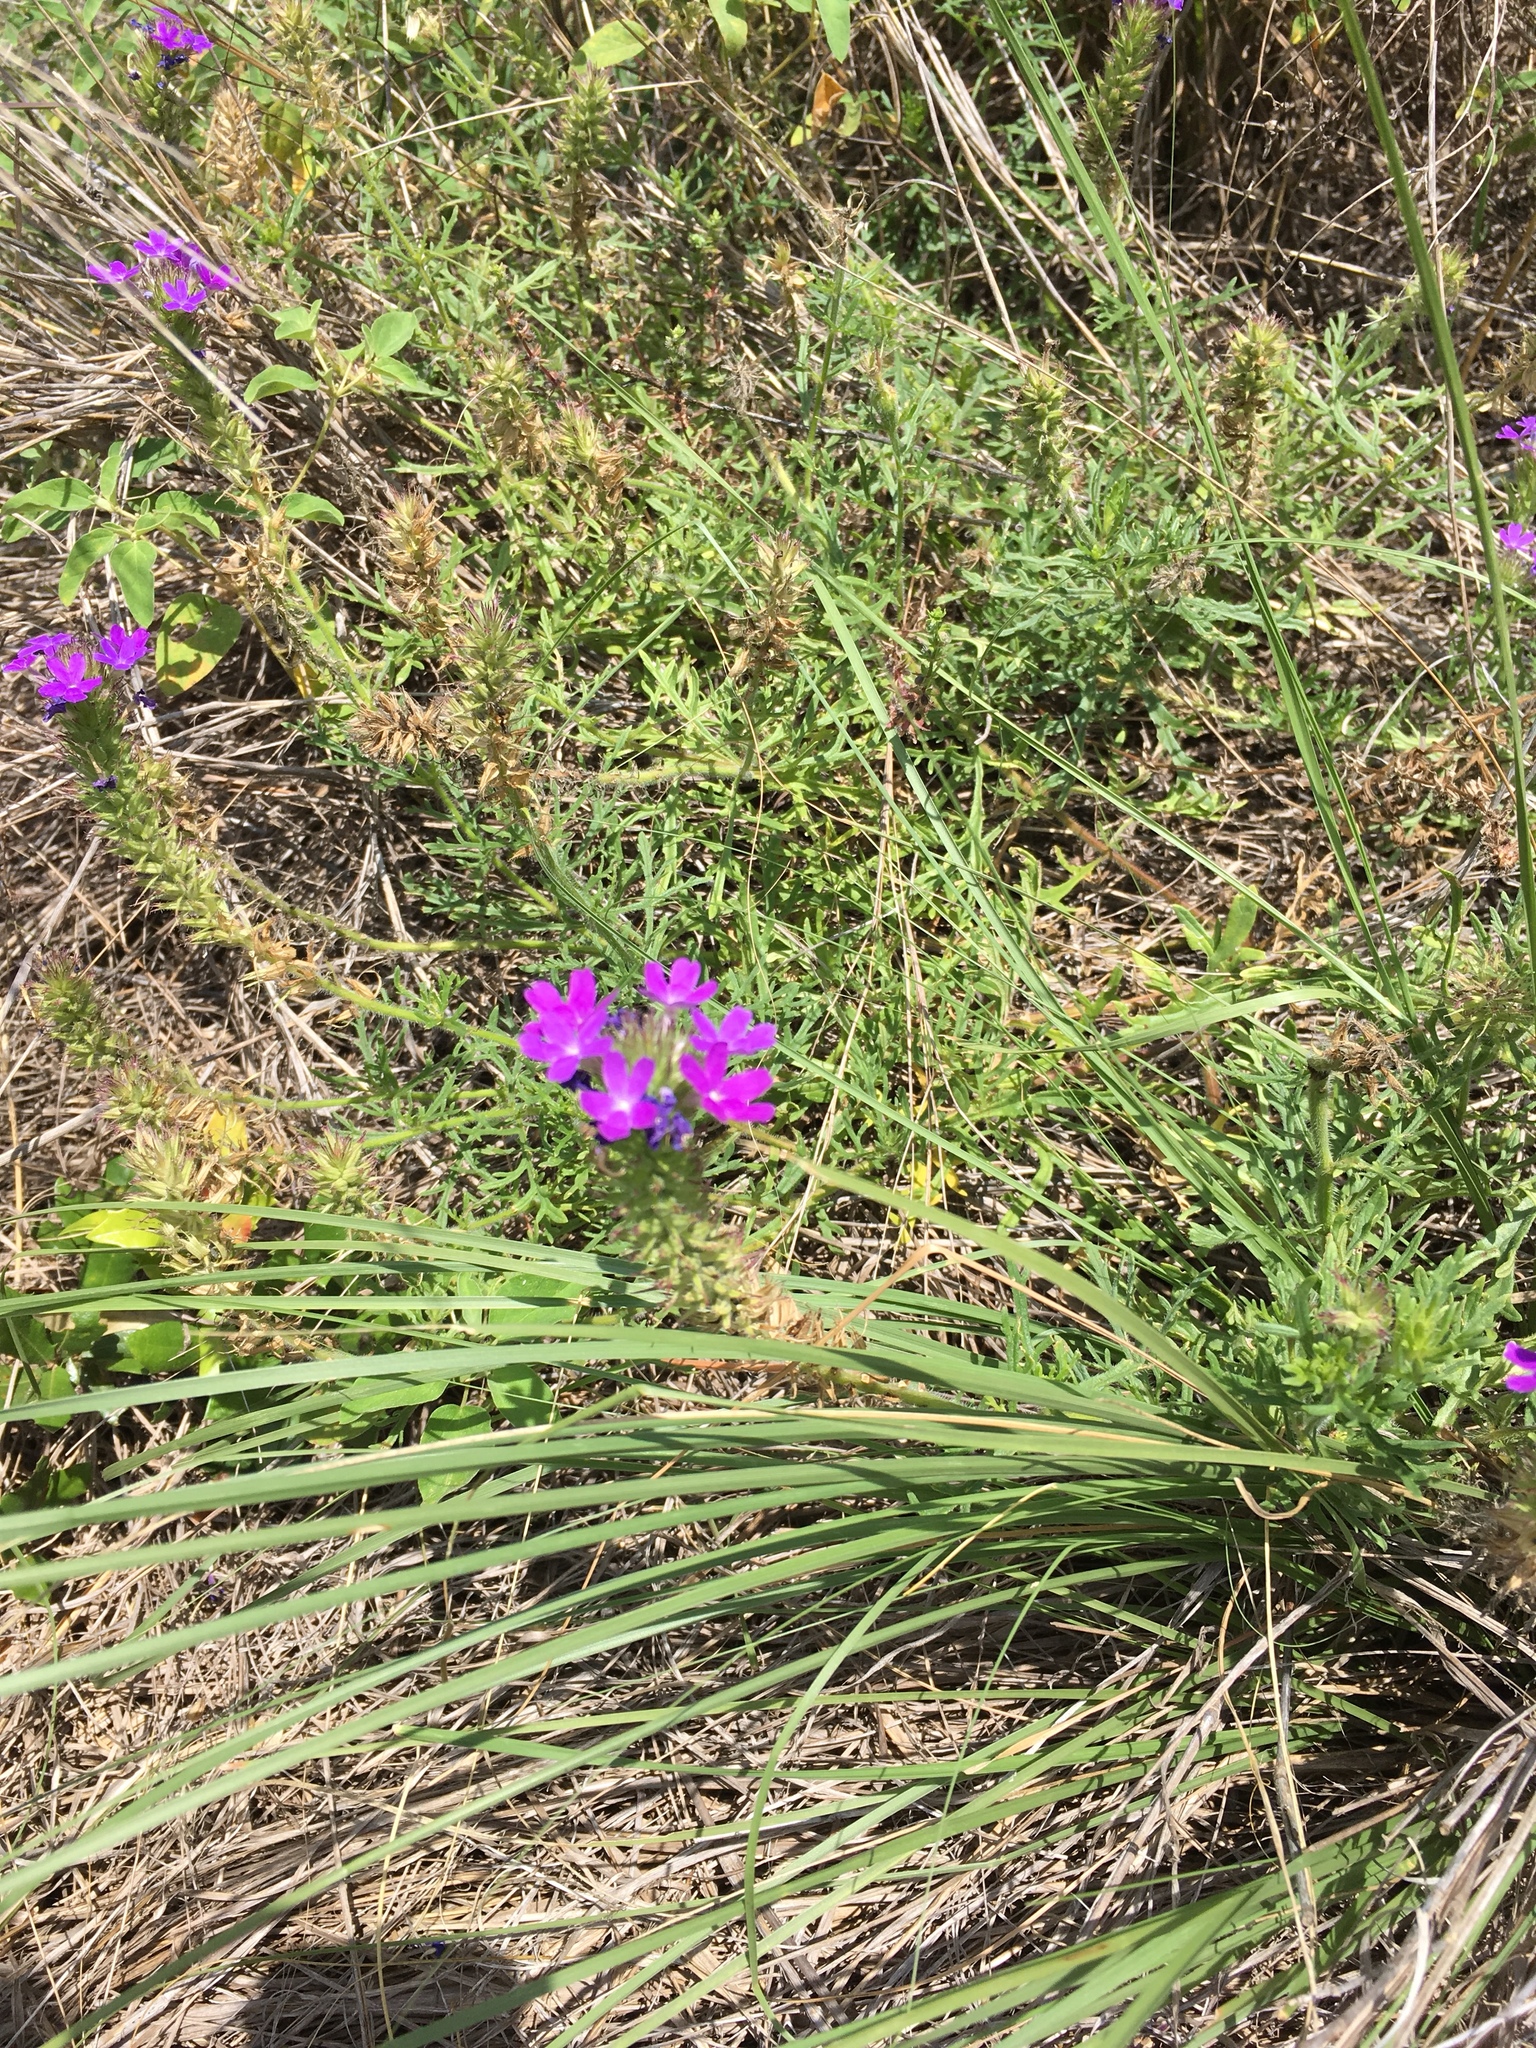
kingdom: Plantae
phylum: Tracheophyta
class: Magnoliopsida
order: Lamiales
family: Verbenaceae
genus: Verbena
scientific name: Verbena bipinnatifida
